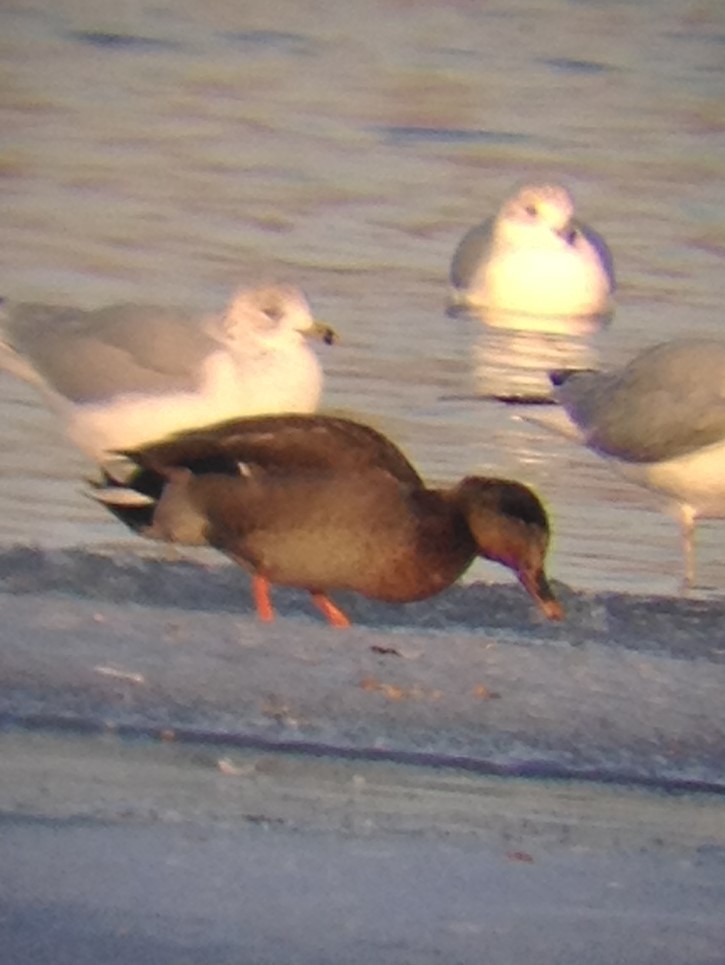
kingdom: Animalia
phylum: Chordata
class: Aves
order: Anseriformes
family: Anatidae
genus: Anas
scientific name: Anas platyrhynchos
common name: Mallard
